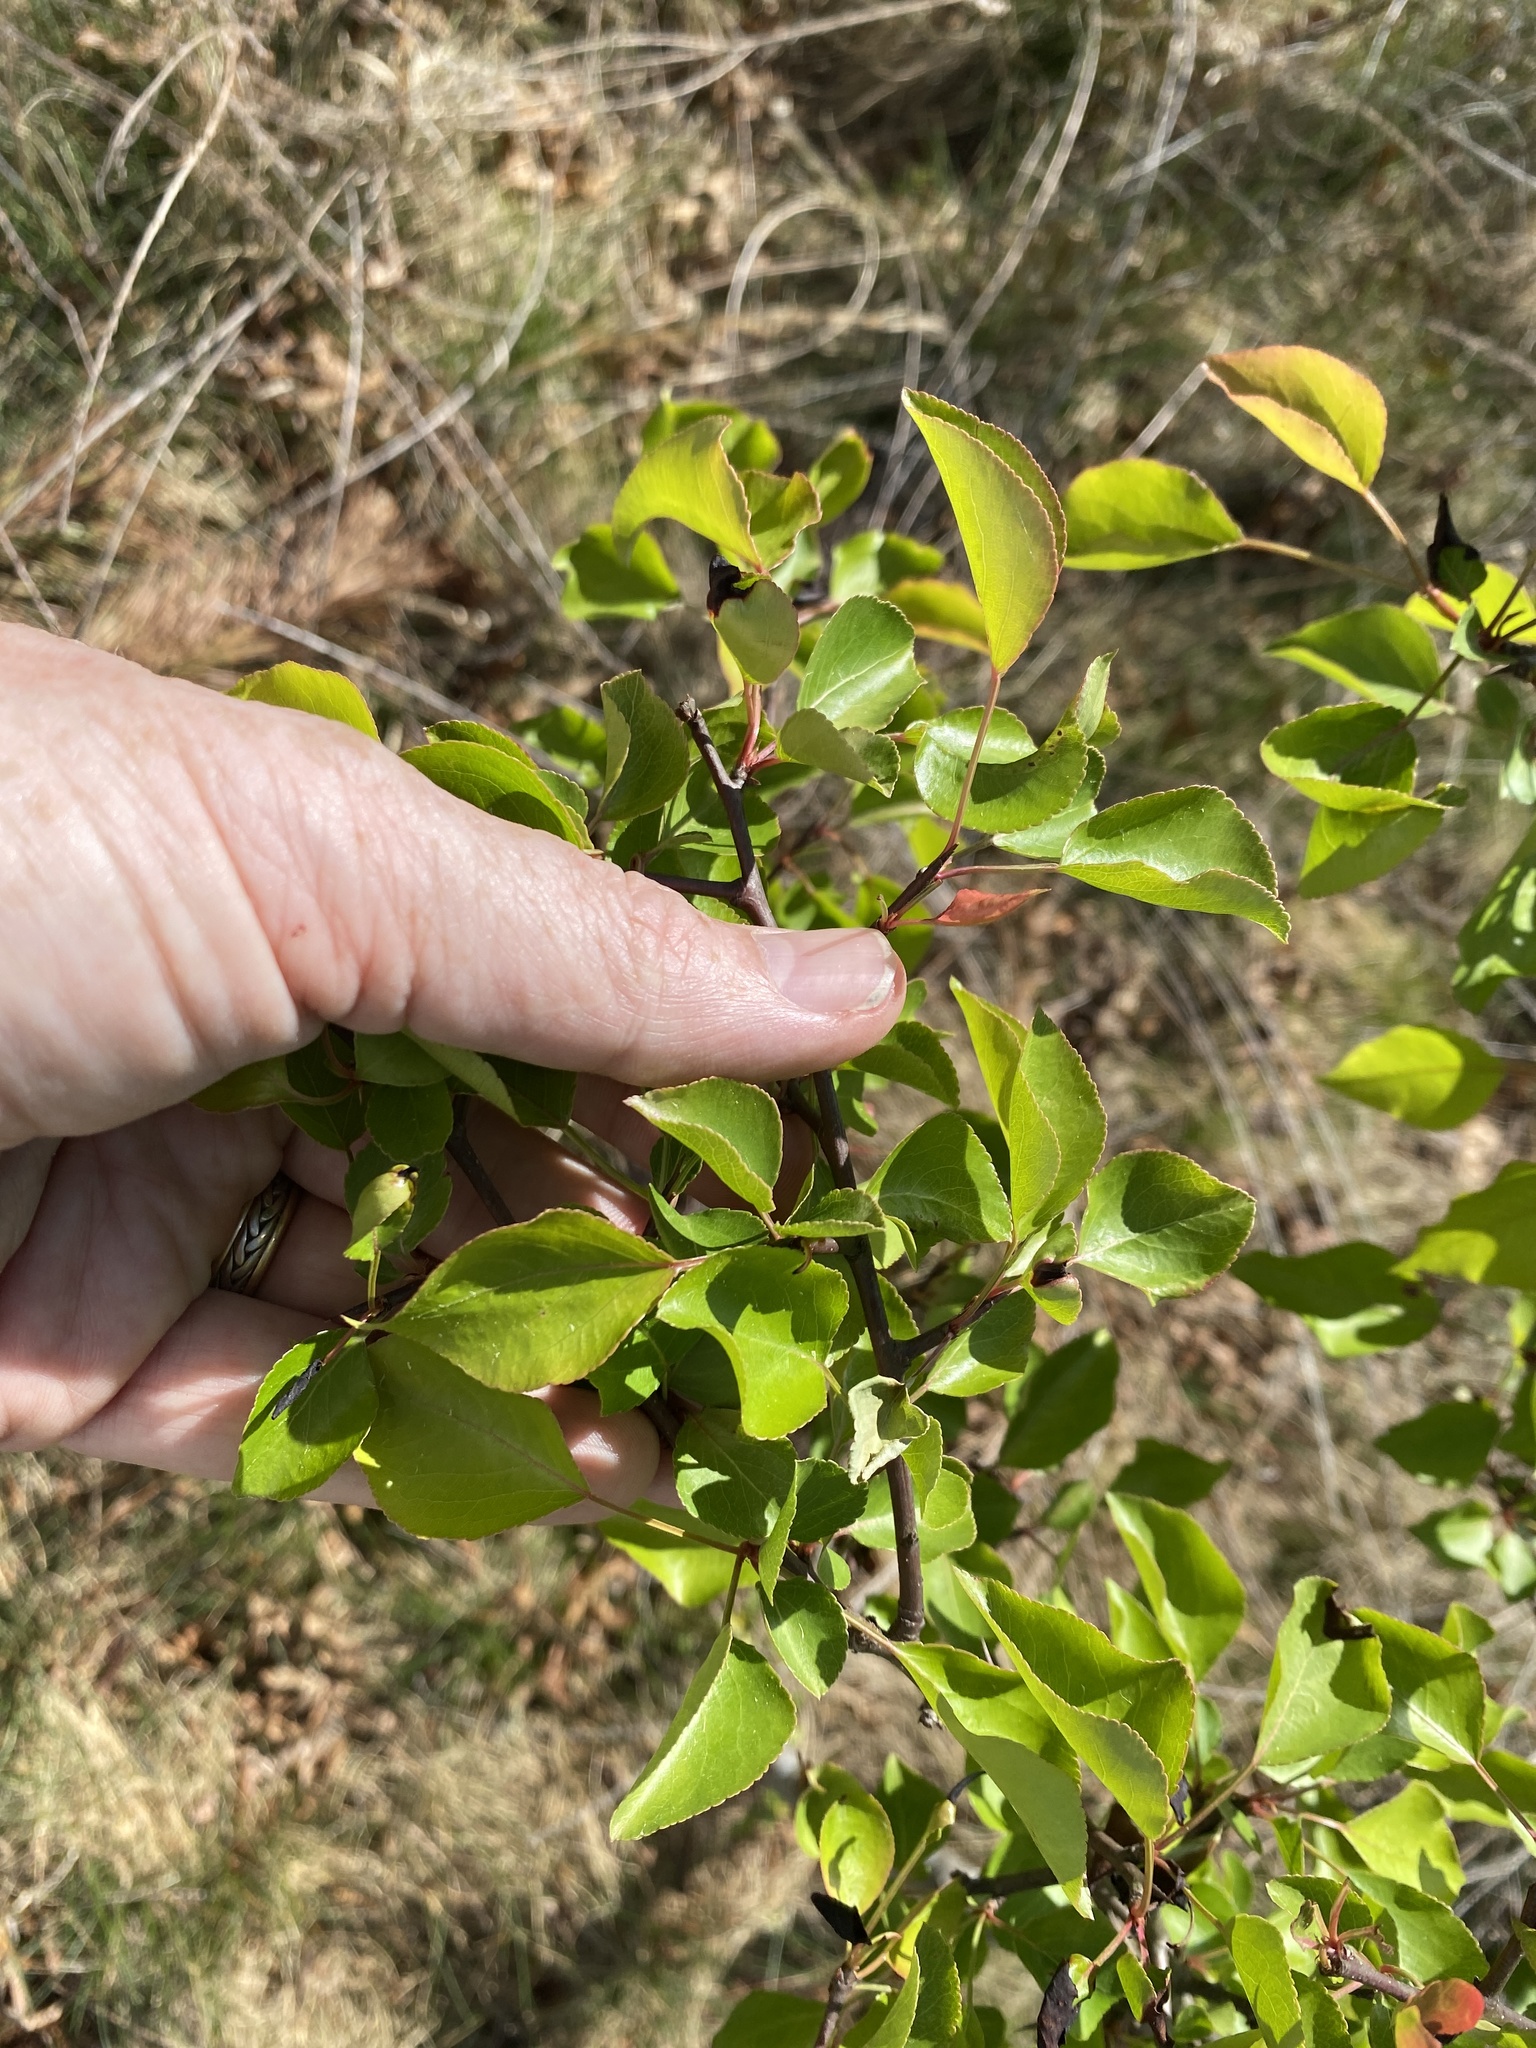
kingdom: Plantae
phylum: Tracheophyta
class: Magnoliopsida
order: Rosales
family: Rosaceae
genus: Pyrus
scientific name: Pyrus calleryana
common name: Callery pear
